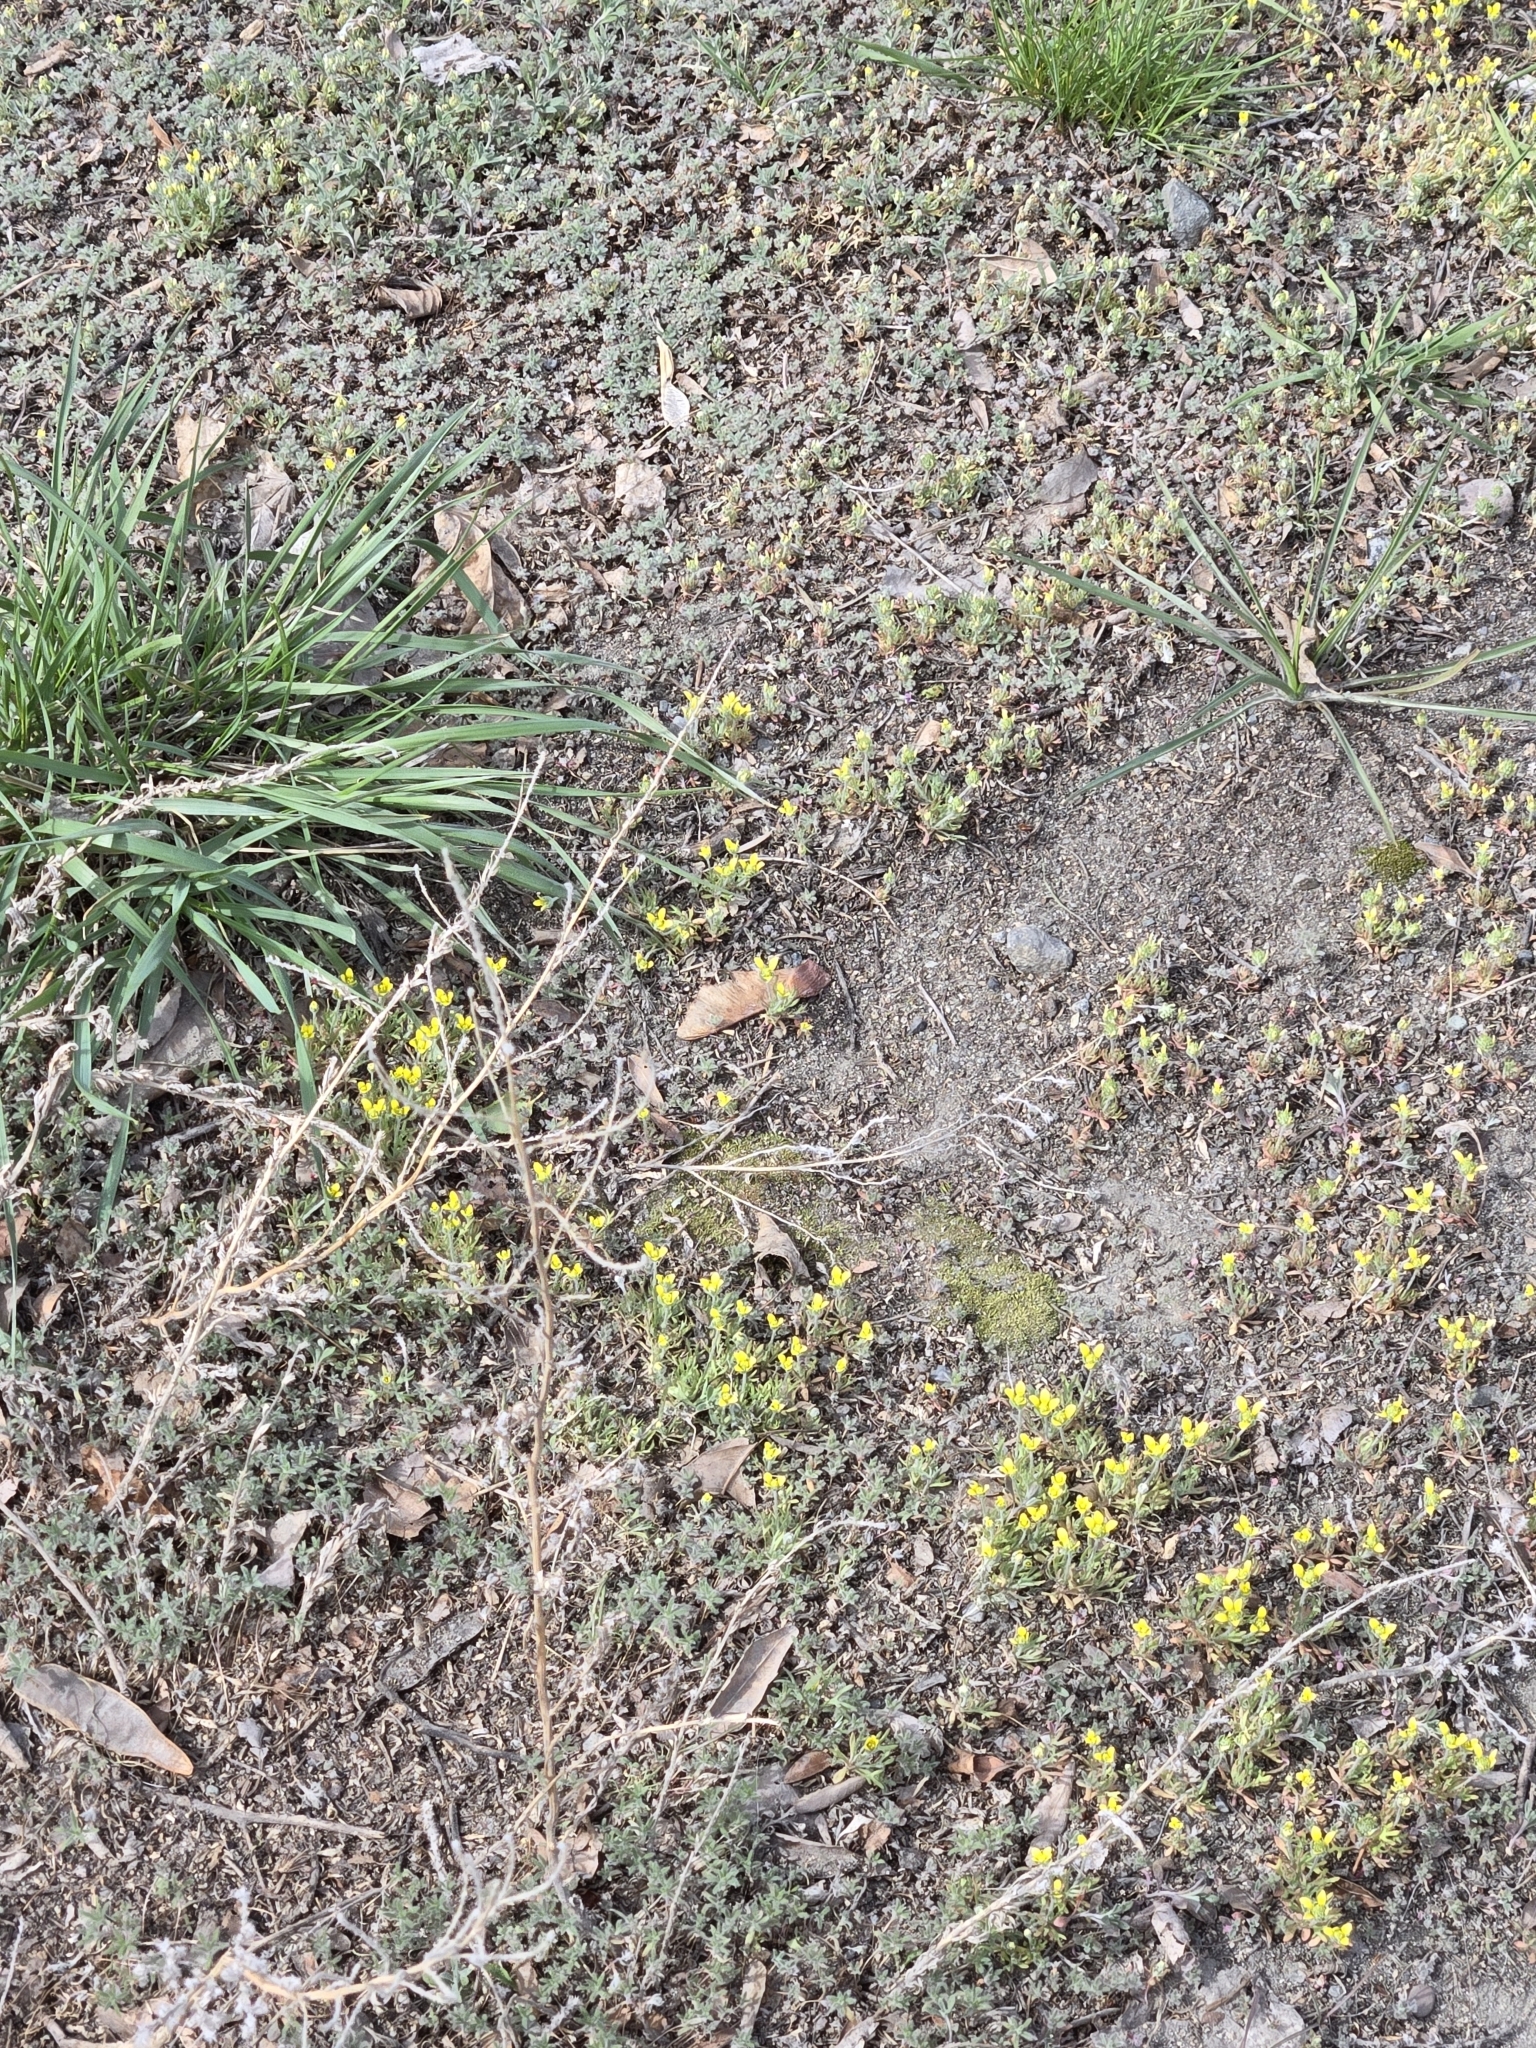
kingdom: Plantae
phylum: Tracheophyta
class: Magnoliopsida
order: Ranunculales
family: Ranunculaceae
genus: Ceratocephala
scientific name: Ceratocephala orthoceras
